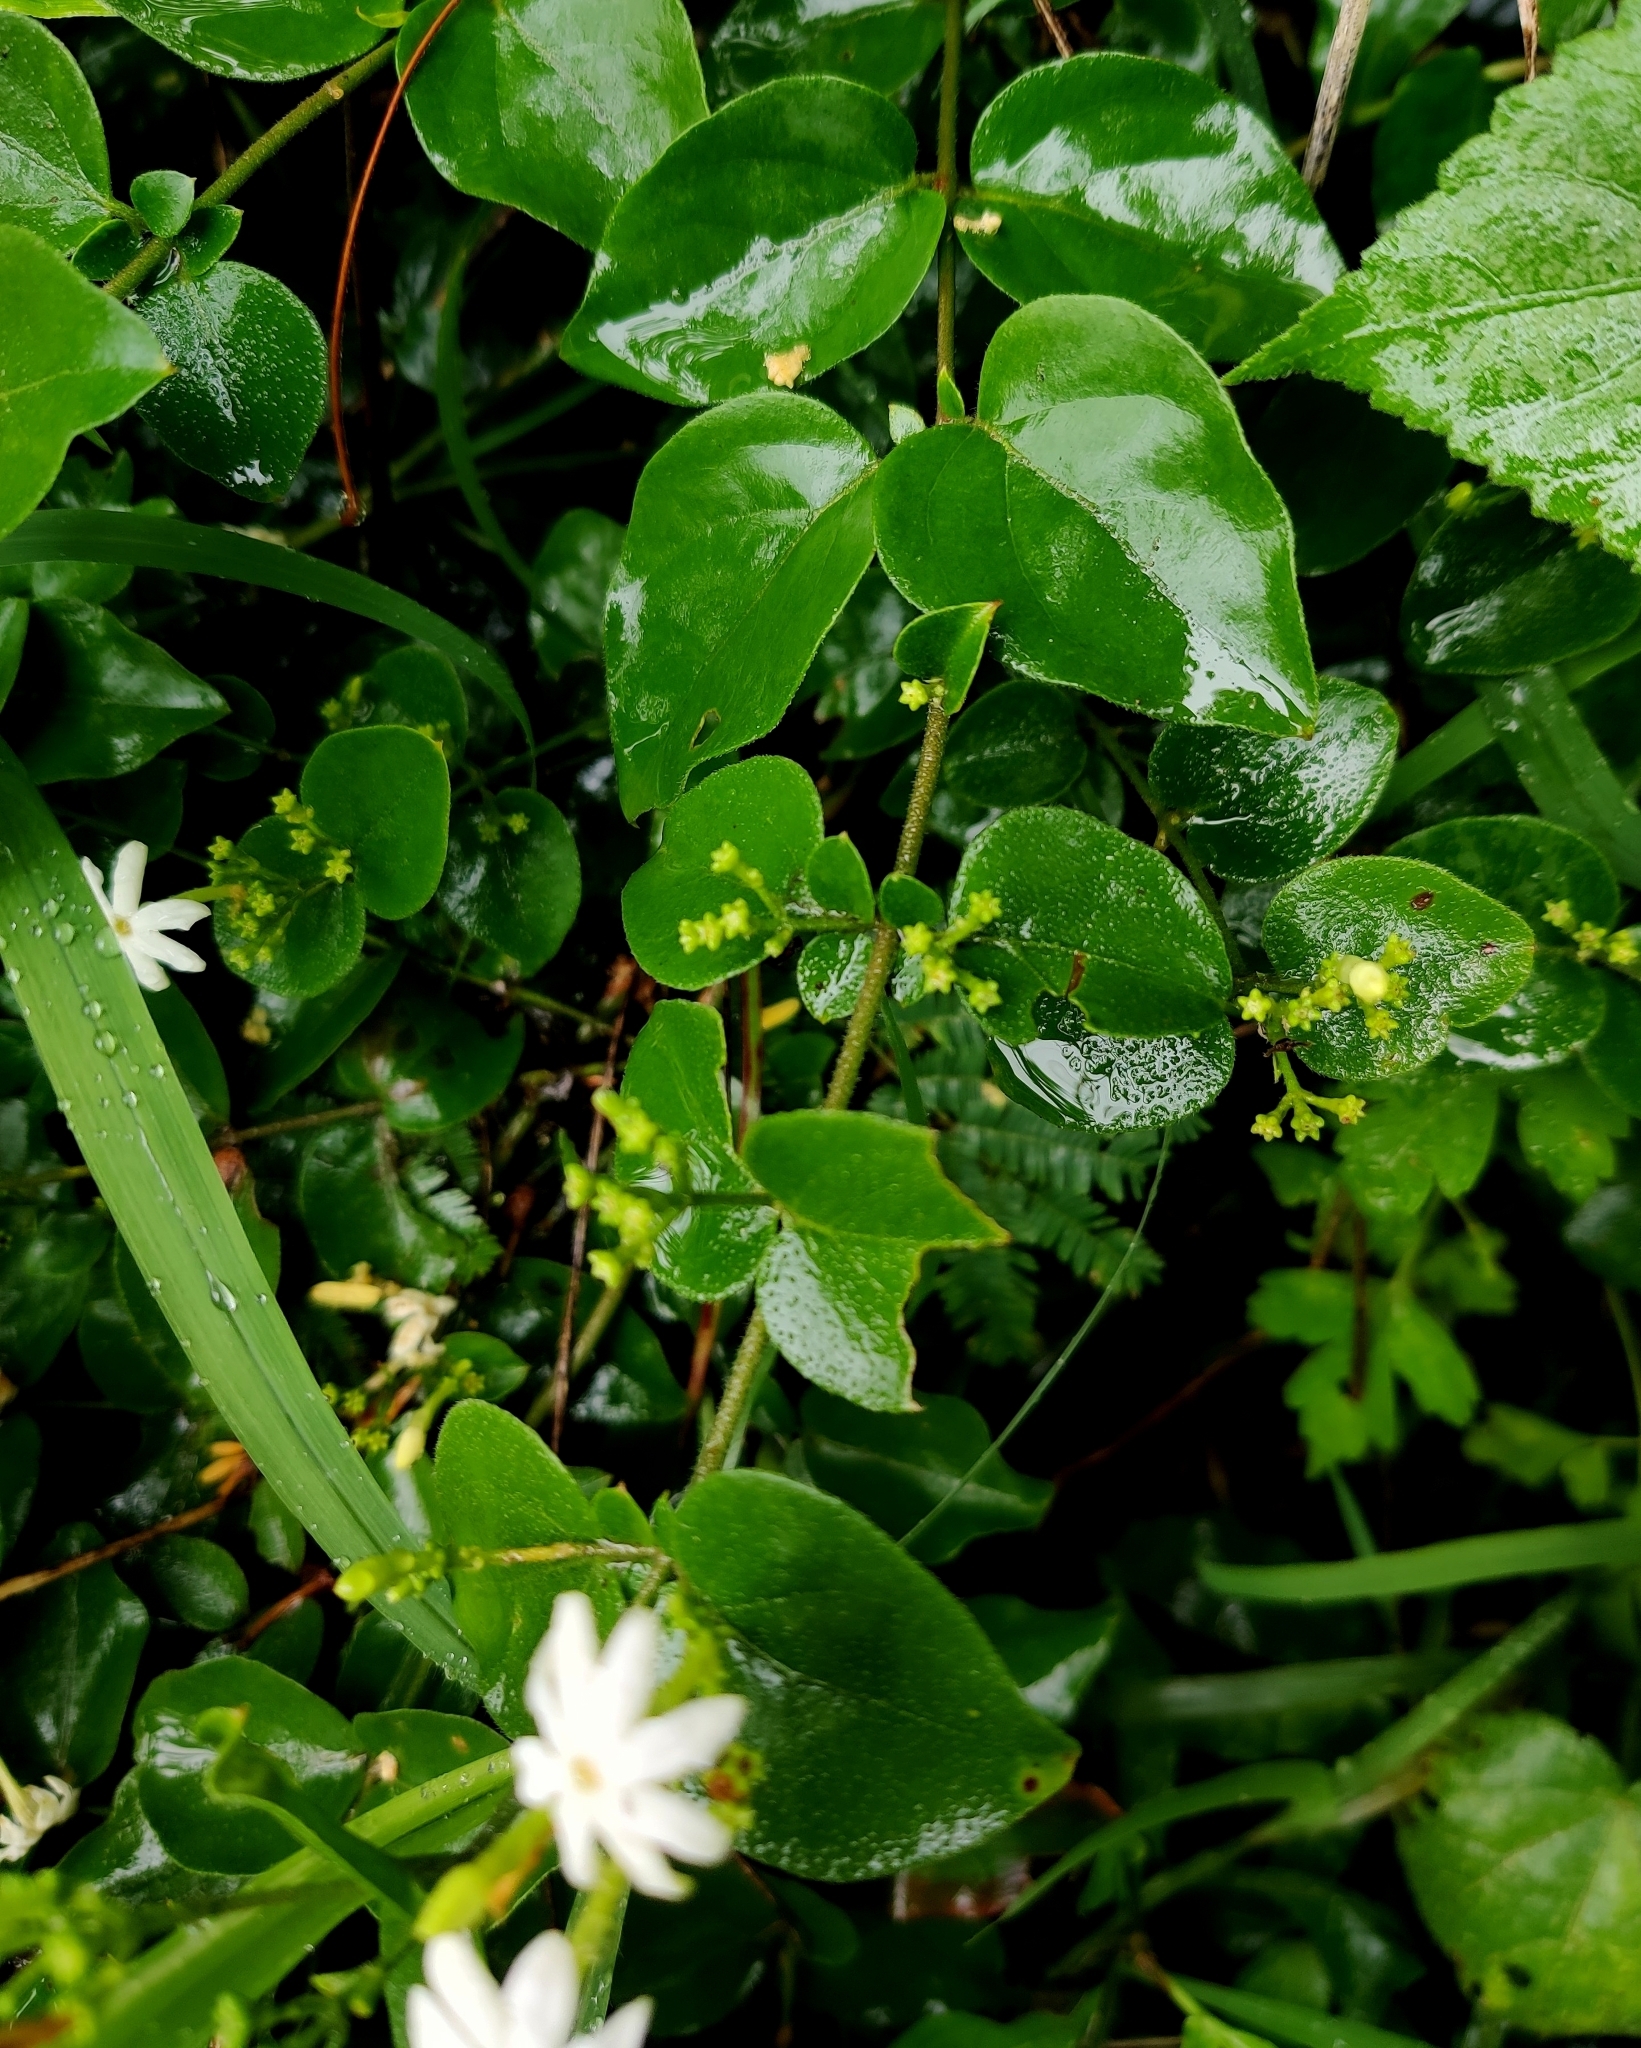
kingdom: Plantae
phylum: Tracheophyta
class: Magnoliopsida
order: Lamiales
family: Oleaceae
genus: Jasminum
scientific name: Jasminum auriculatum
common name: Needle-flower jasmine
